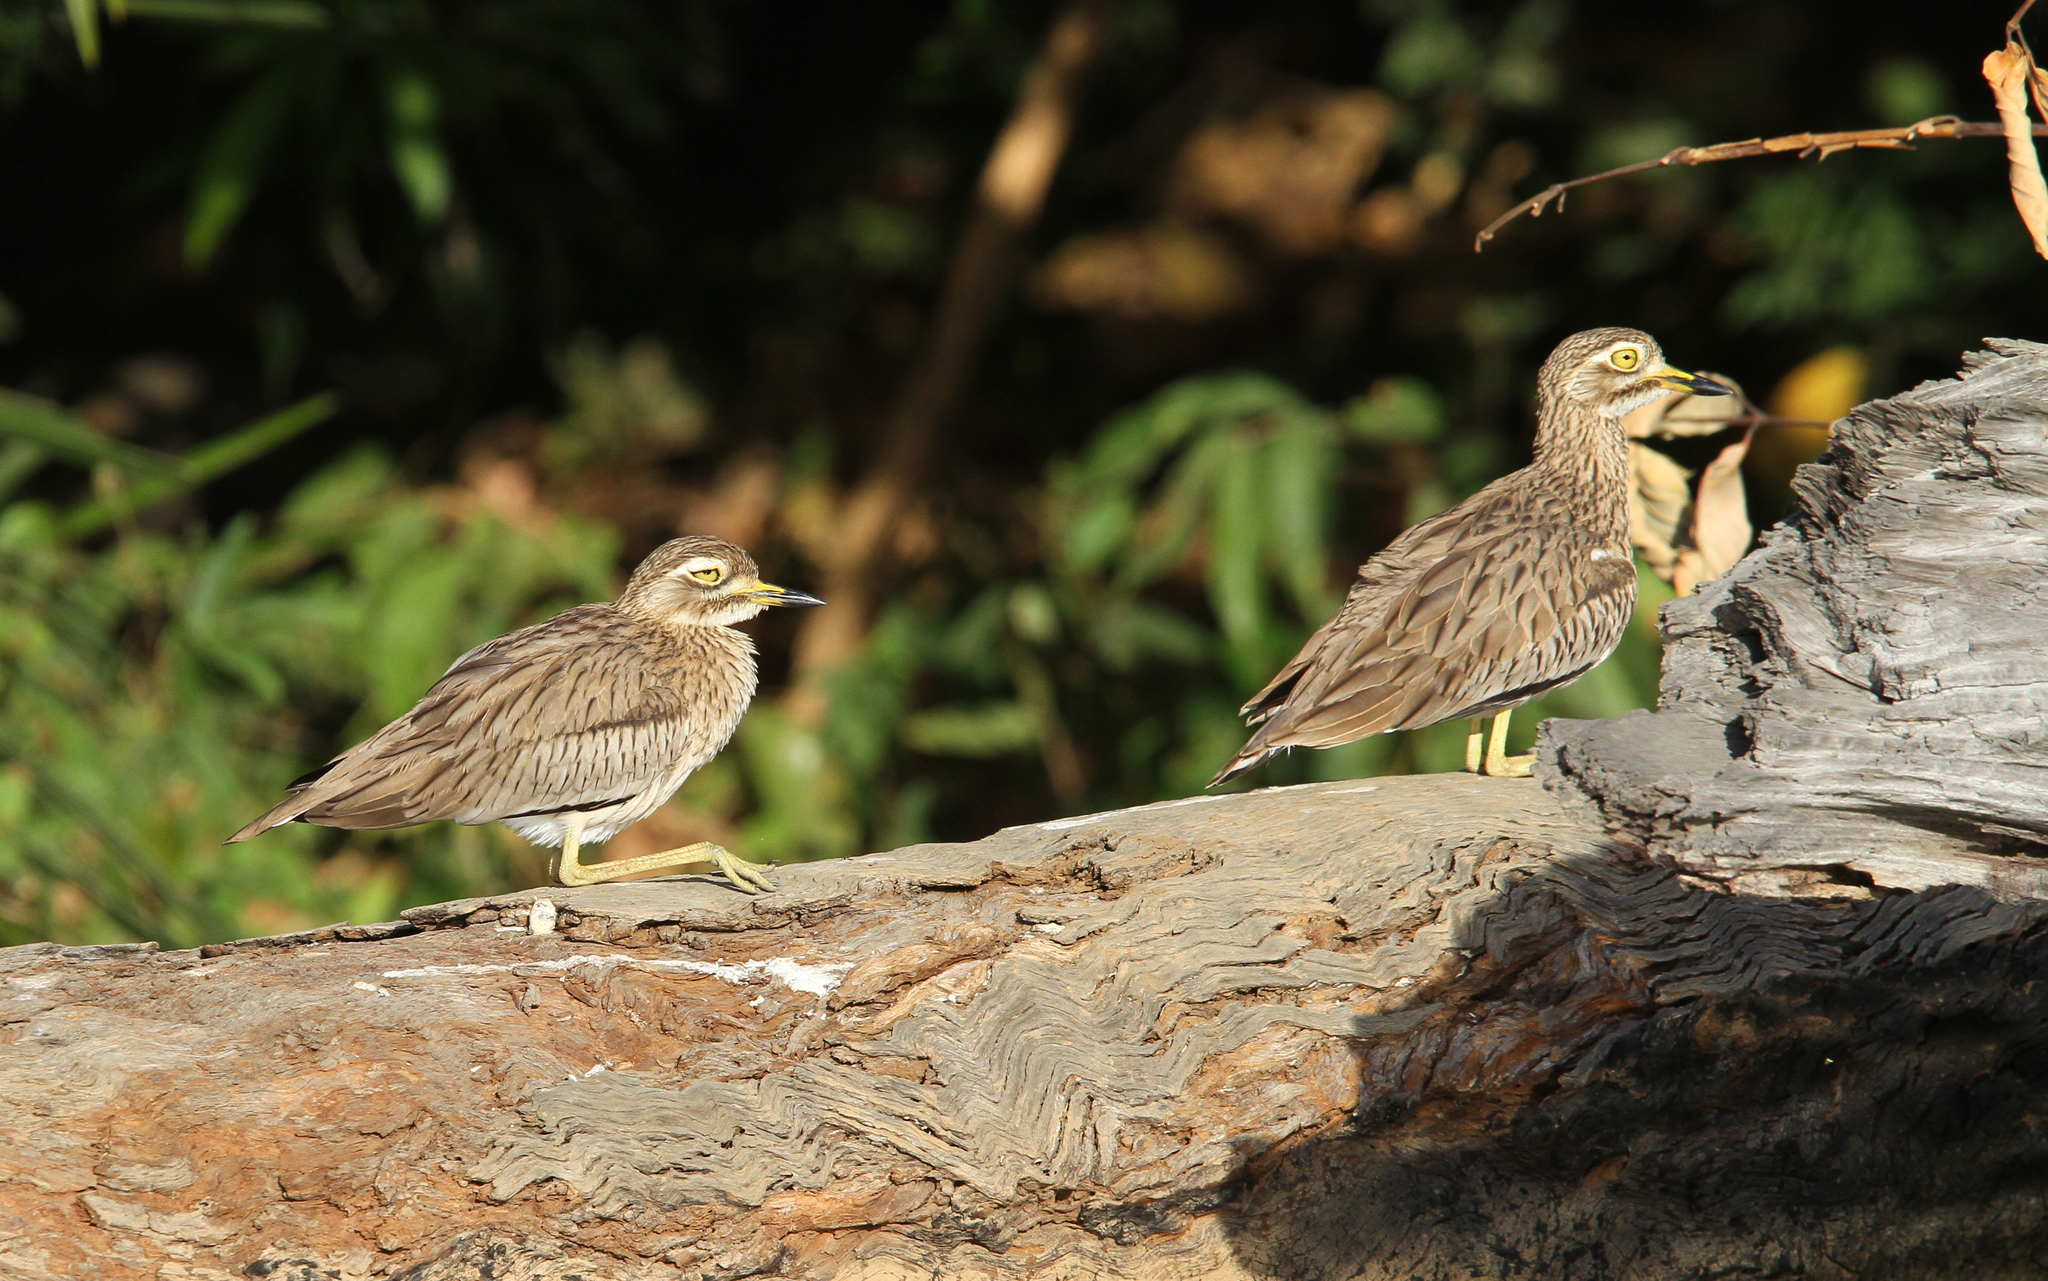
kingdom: Animalia
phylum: Chordata
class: Aves
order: Charadriiformes
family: Burhinidae
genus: Burhinus
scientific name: Burhinus senegalensis
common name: Senegal thick-knee
